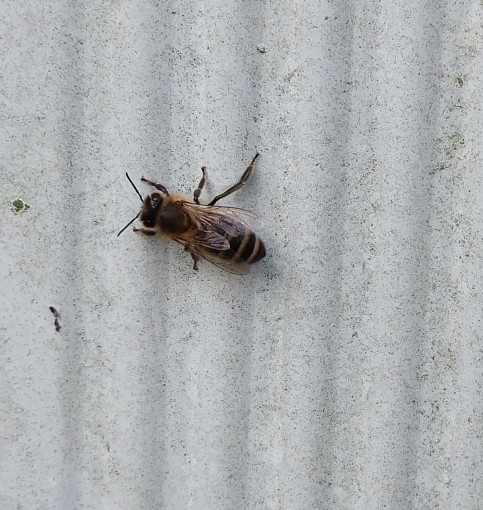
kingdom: Animalia
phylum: Arthropoda
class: Insecta
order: Hymenoptera
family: Apidae
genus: Apis
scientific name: Apis mellifera
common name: Honey bee
